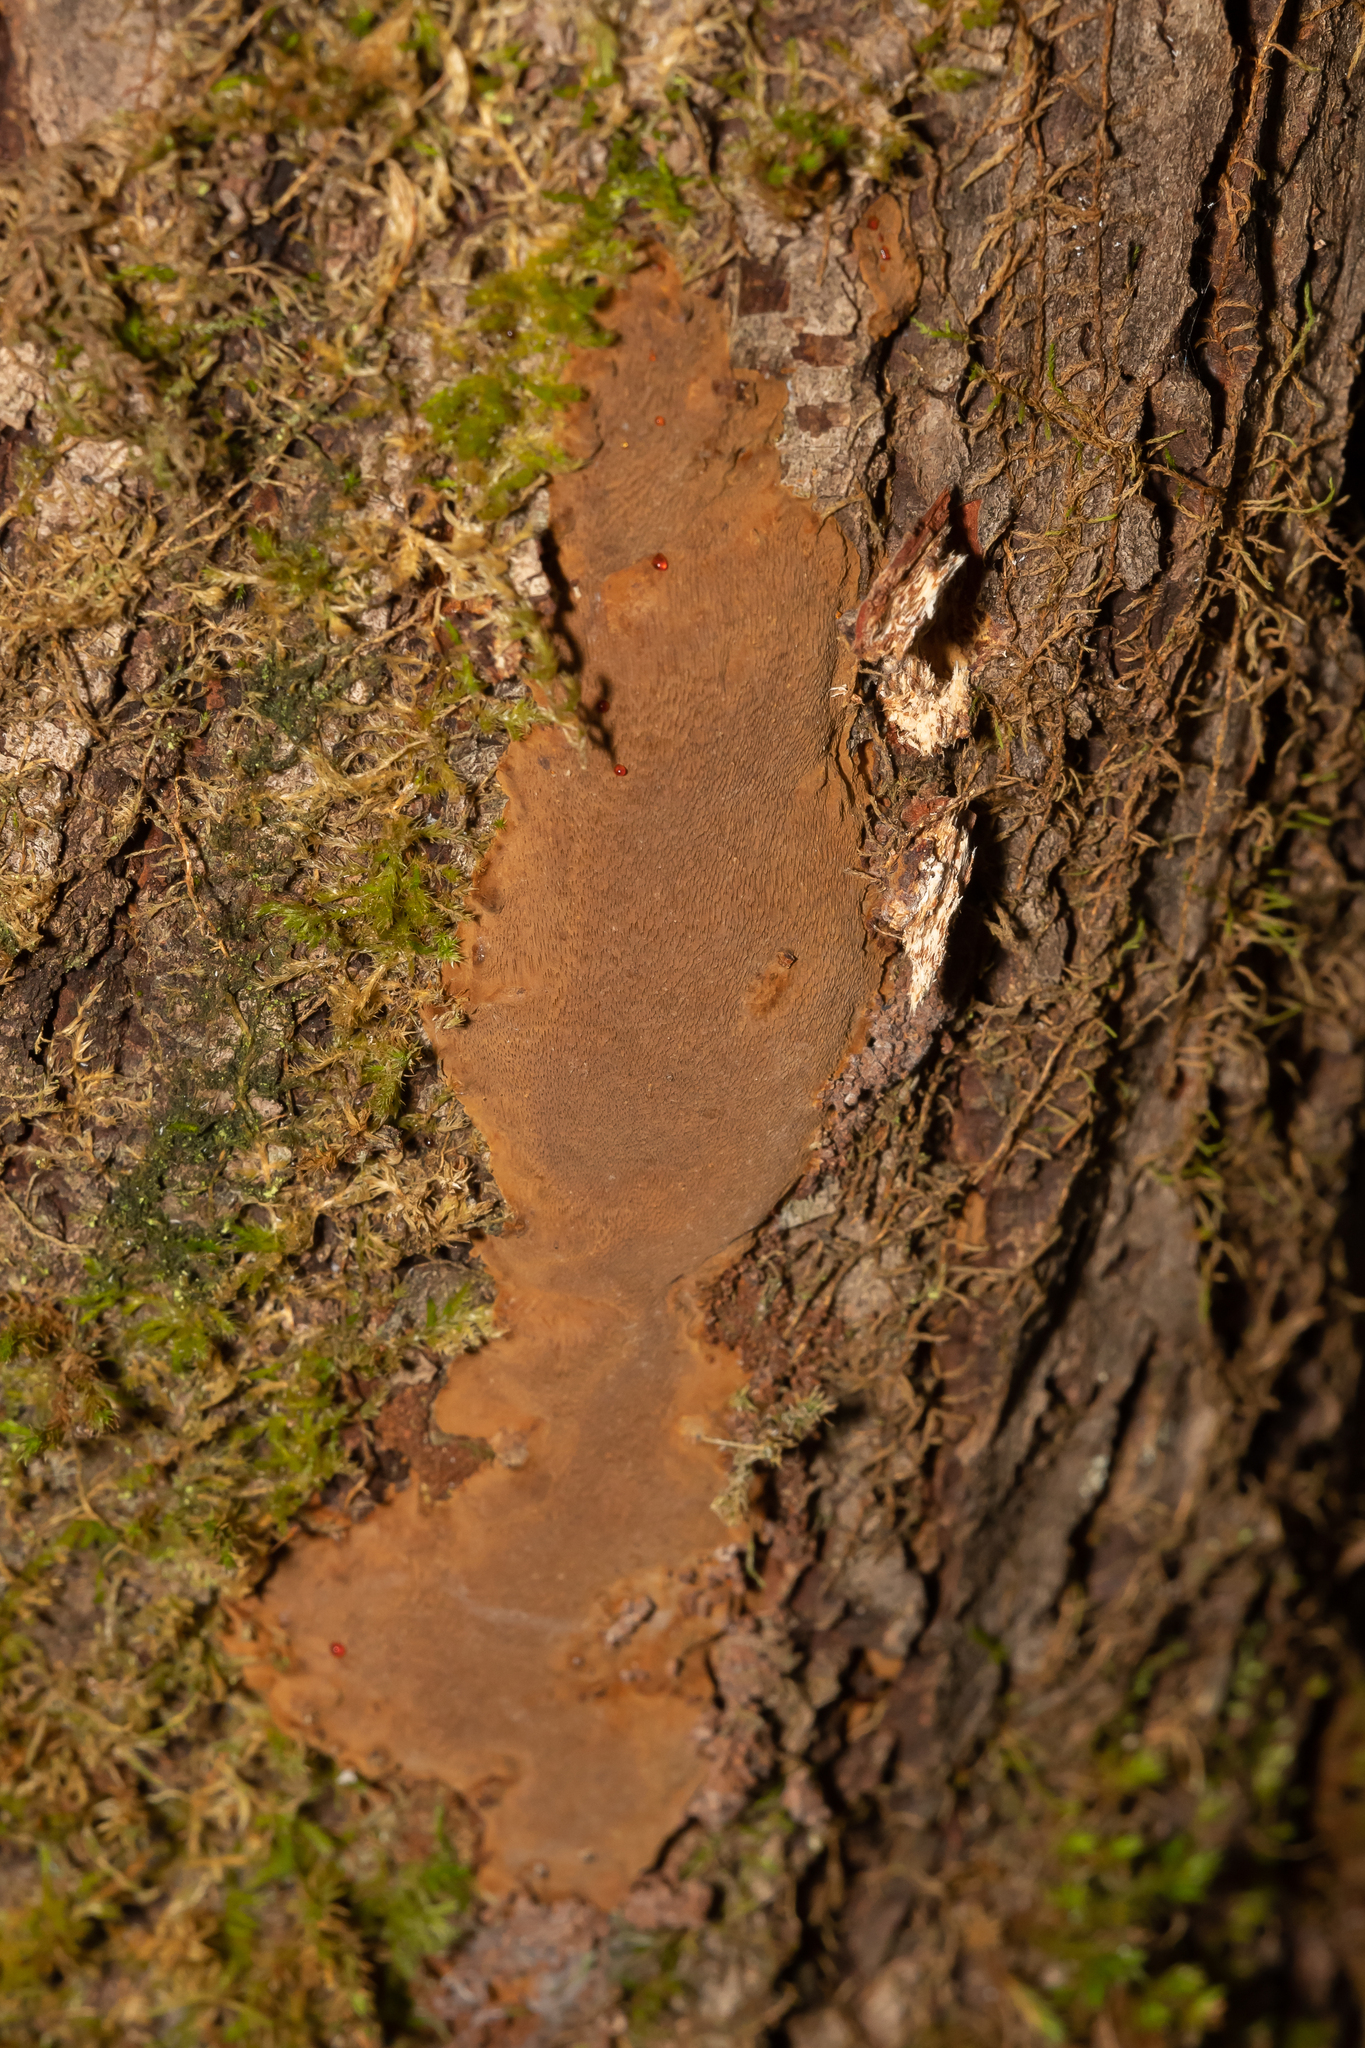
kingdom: Fungi
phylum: Basidiomycota
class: Agaricomycetes
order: Hymenochaetales
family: Hymenochaetaceae
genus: Fomitiporia
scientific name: Fomitiporia punctata
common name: Elbowpatch crust
